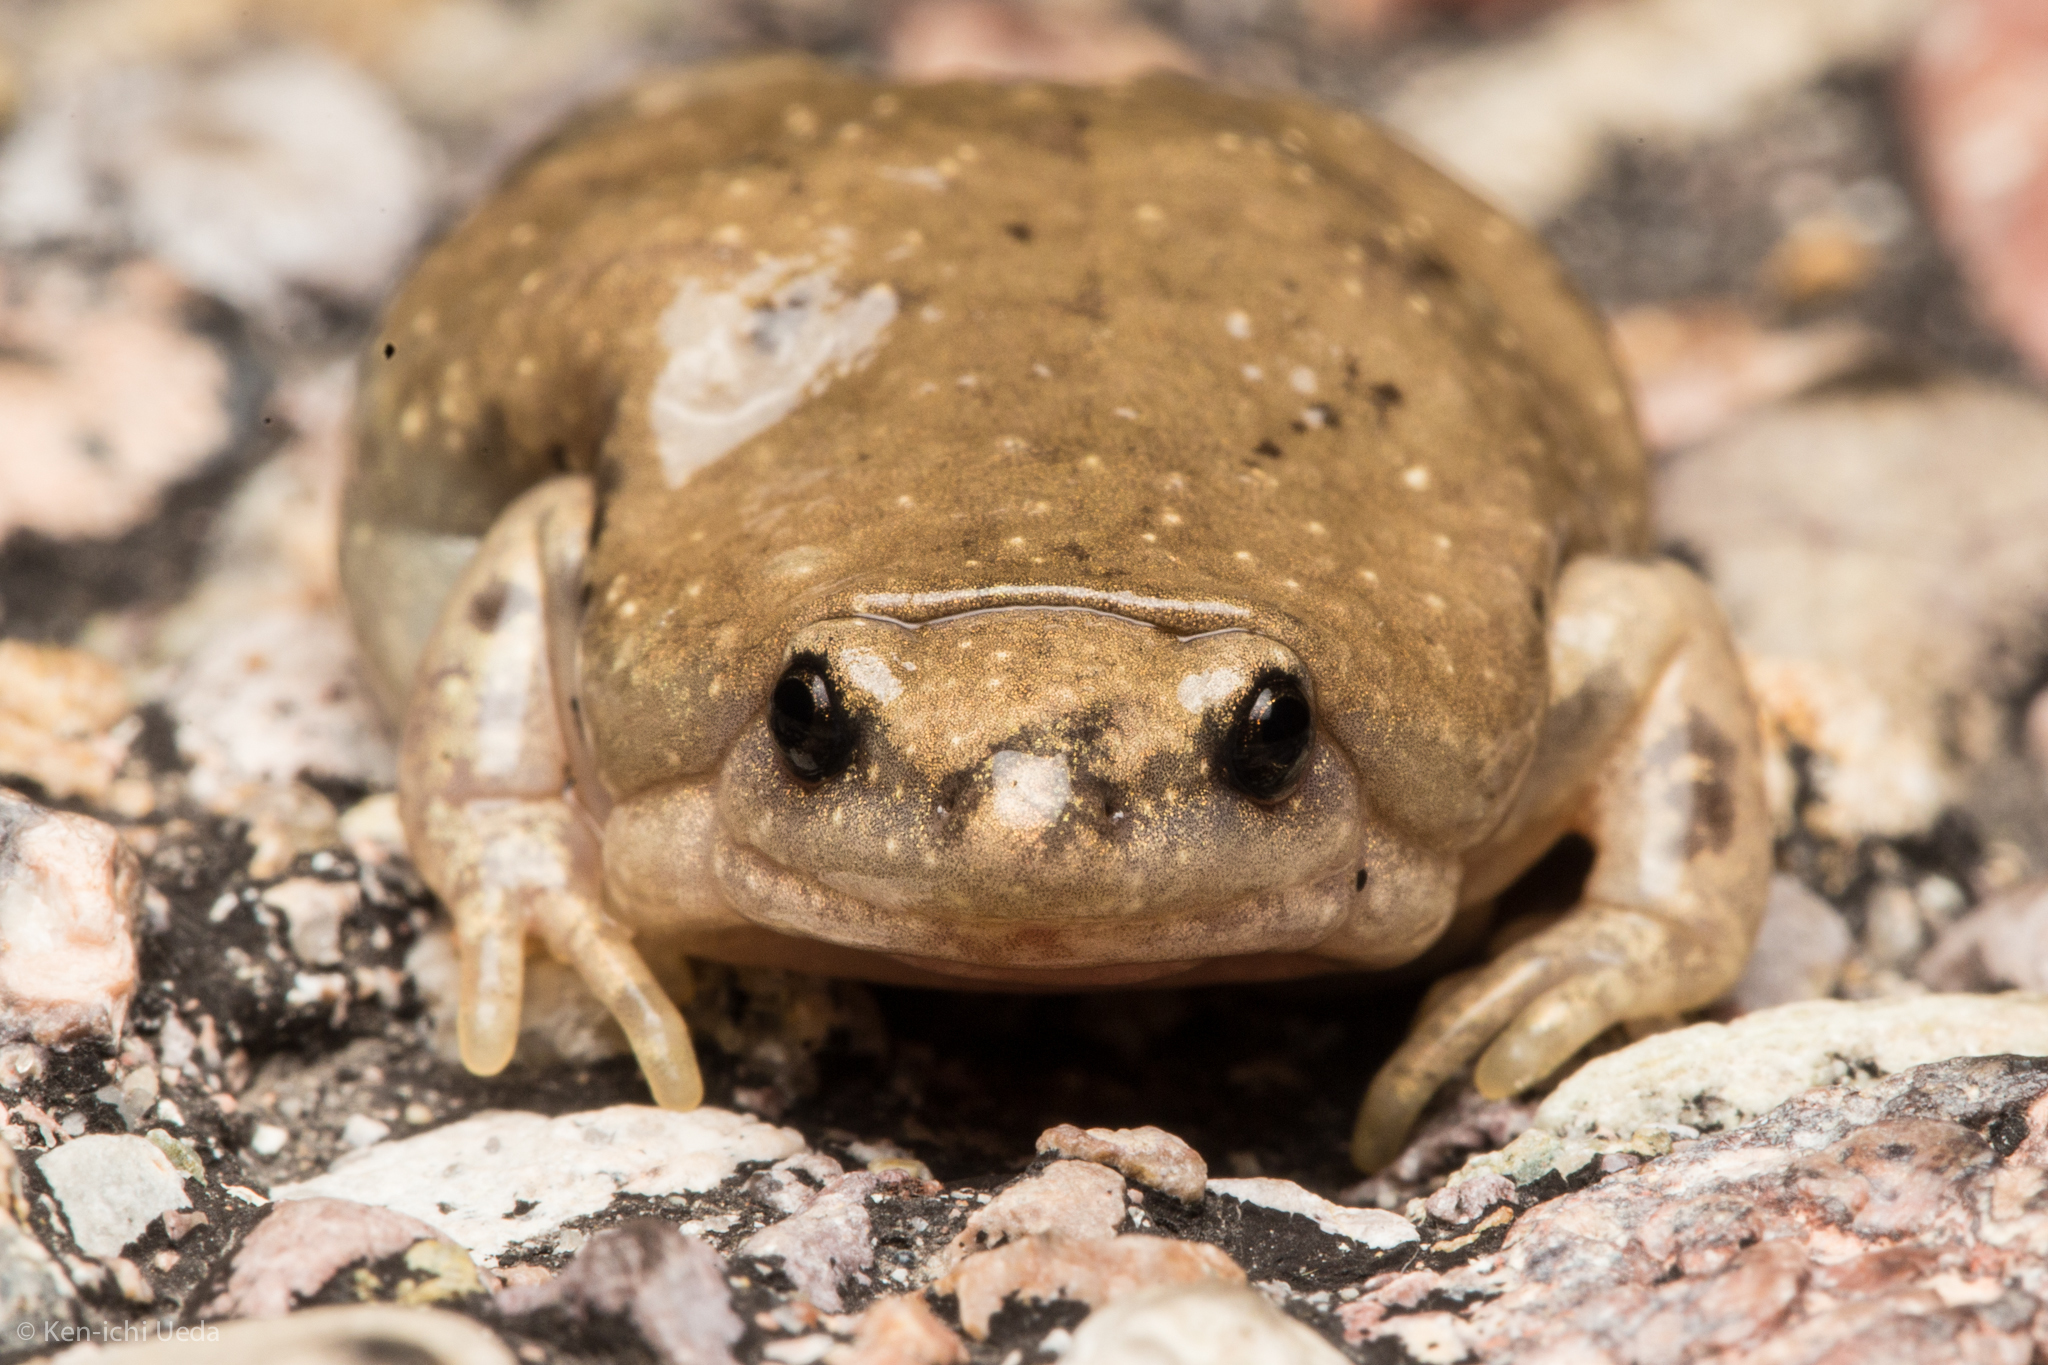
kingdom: Animalia
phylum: Chordata
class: Amphibia
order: Anura
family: Microhylidae
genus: Gastrophryne
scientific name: Gastrophryne mazatlanensis
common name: Sinaloan narrow-mouthed toad
